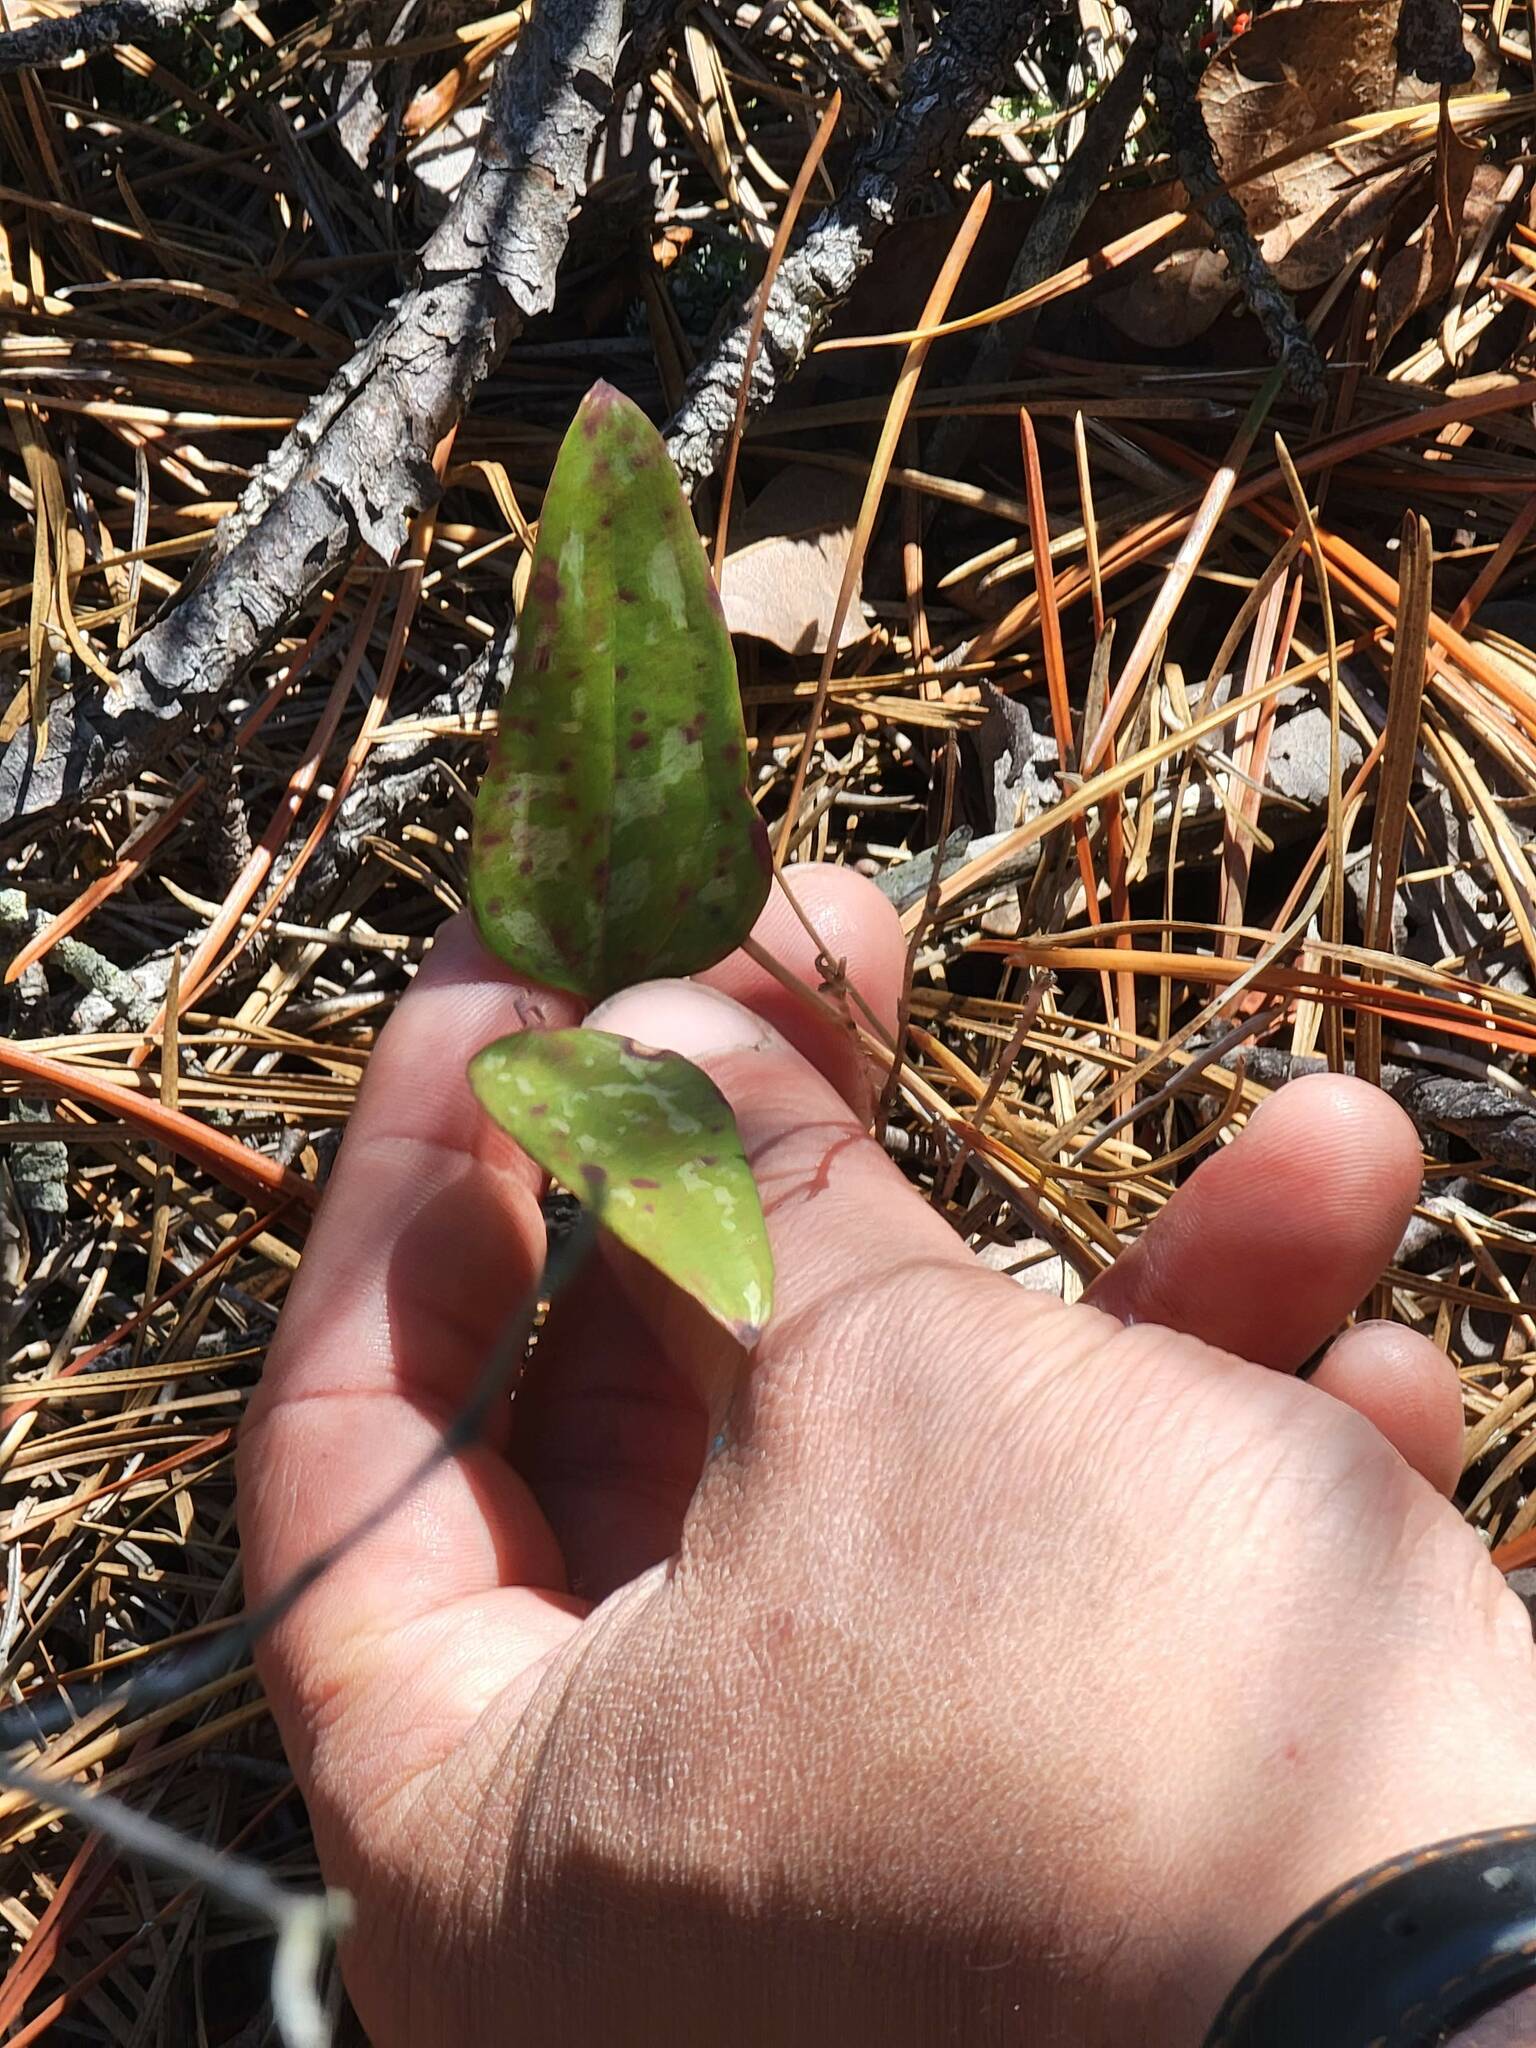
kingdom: Plantae
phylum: Tracheophyta
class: Liliopsida
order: Liliales
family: Smilacaceae
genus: Smilax
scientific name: Smilax glauca
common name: Cat greenbrier
